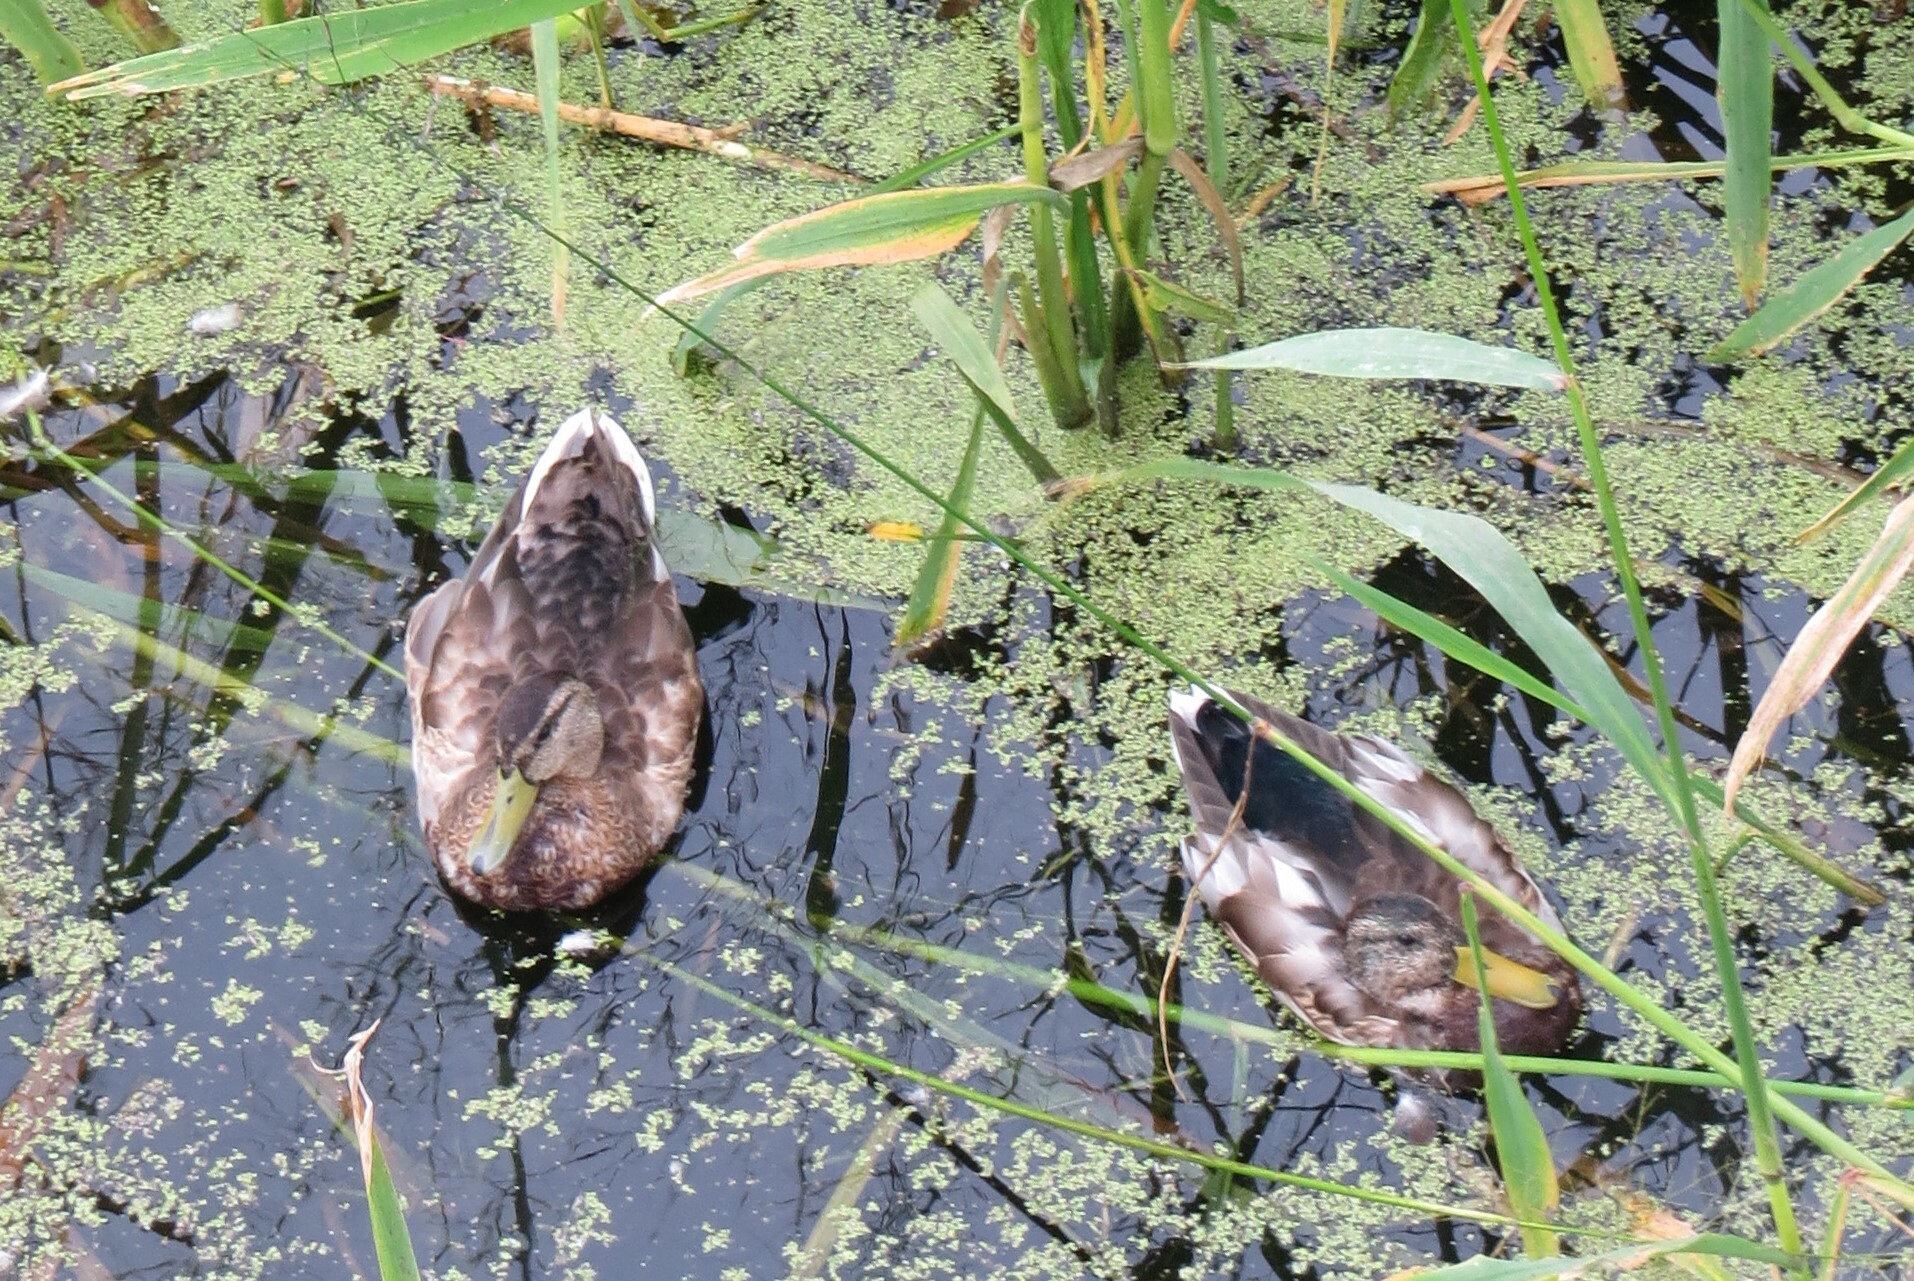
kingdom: Animalia
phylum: Chordata
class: Aves
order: Anseriformes
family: Anatidae
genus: Anas
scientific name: Anas platyrhynchos
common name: Mallard
